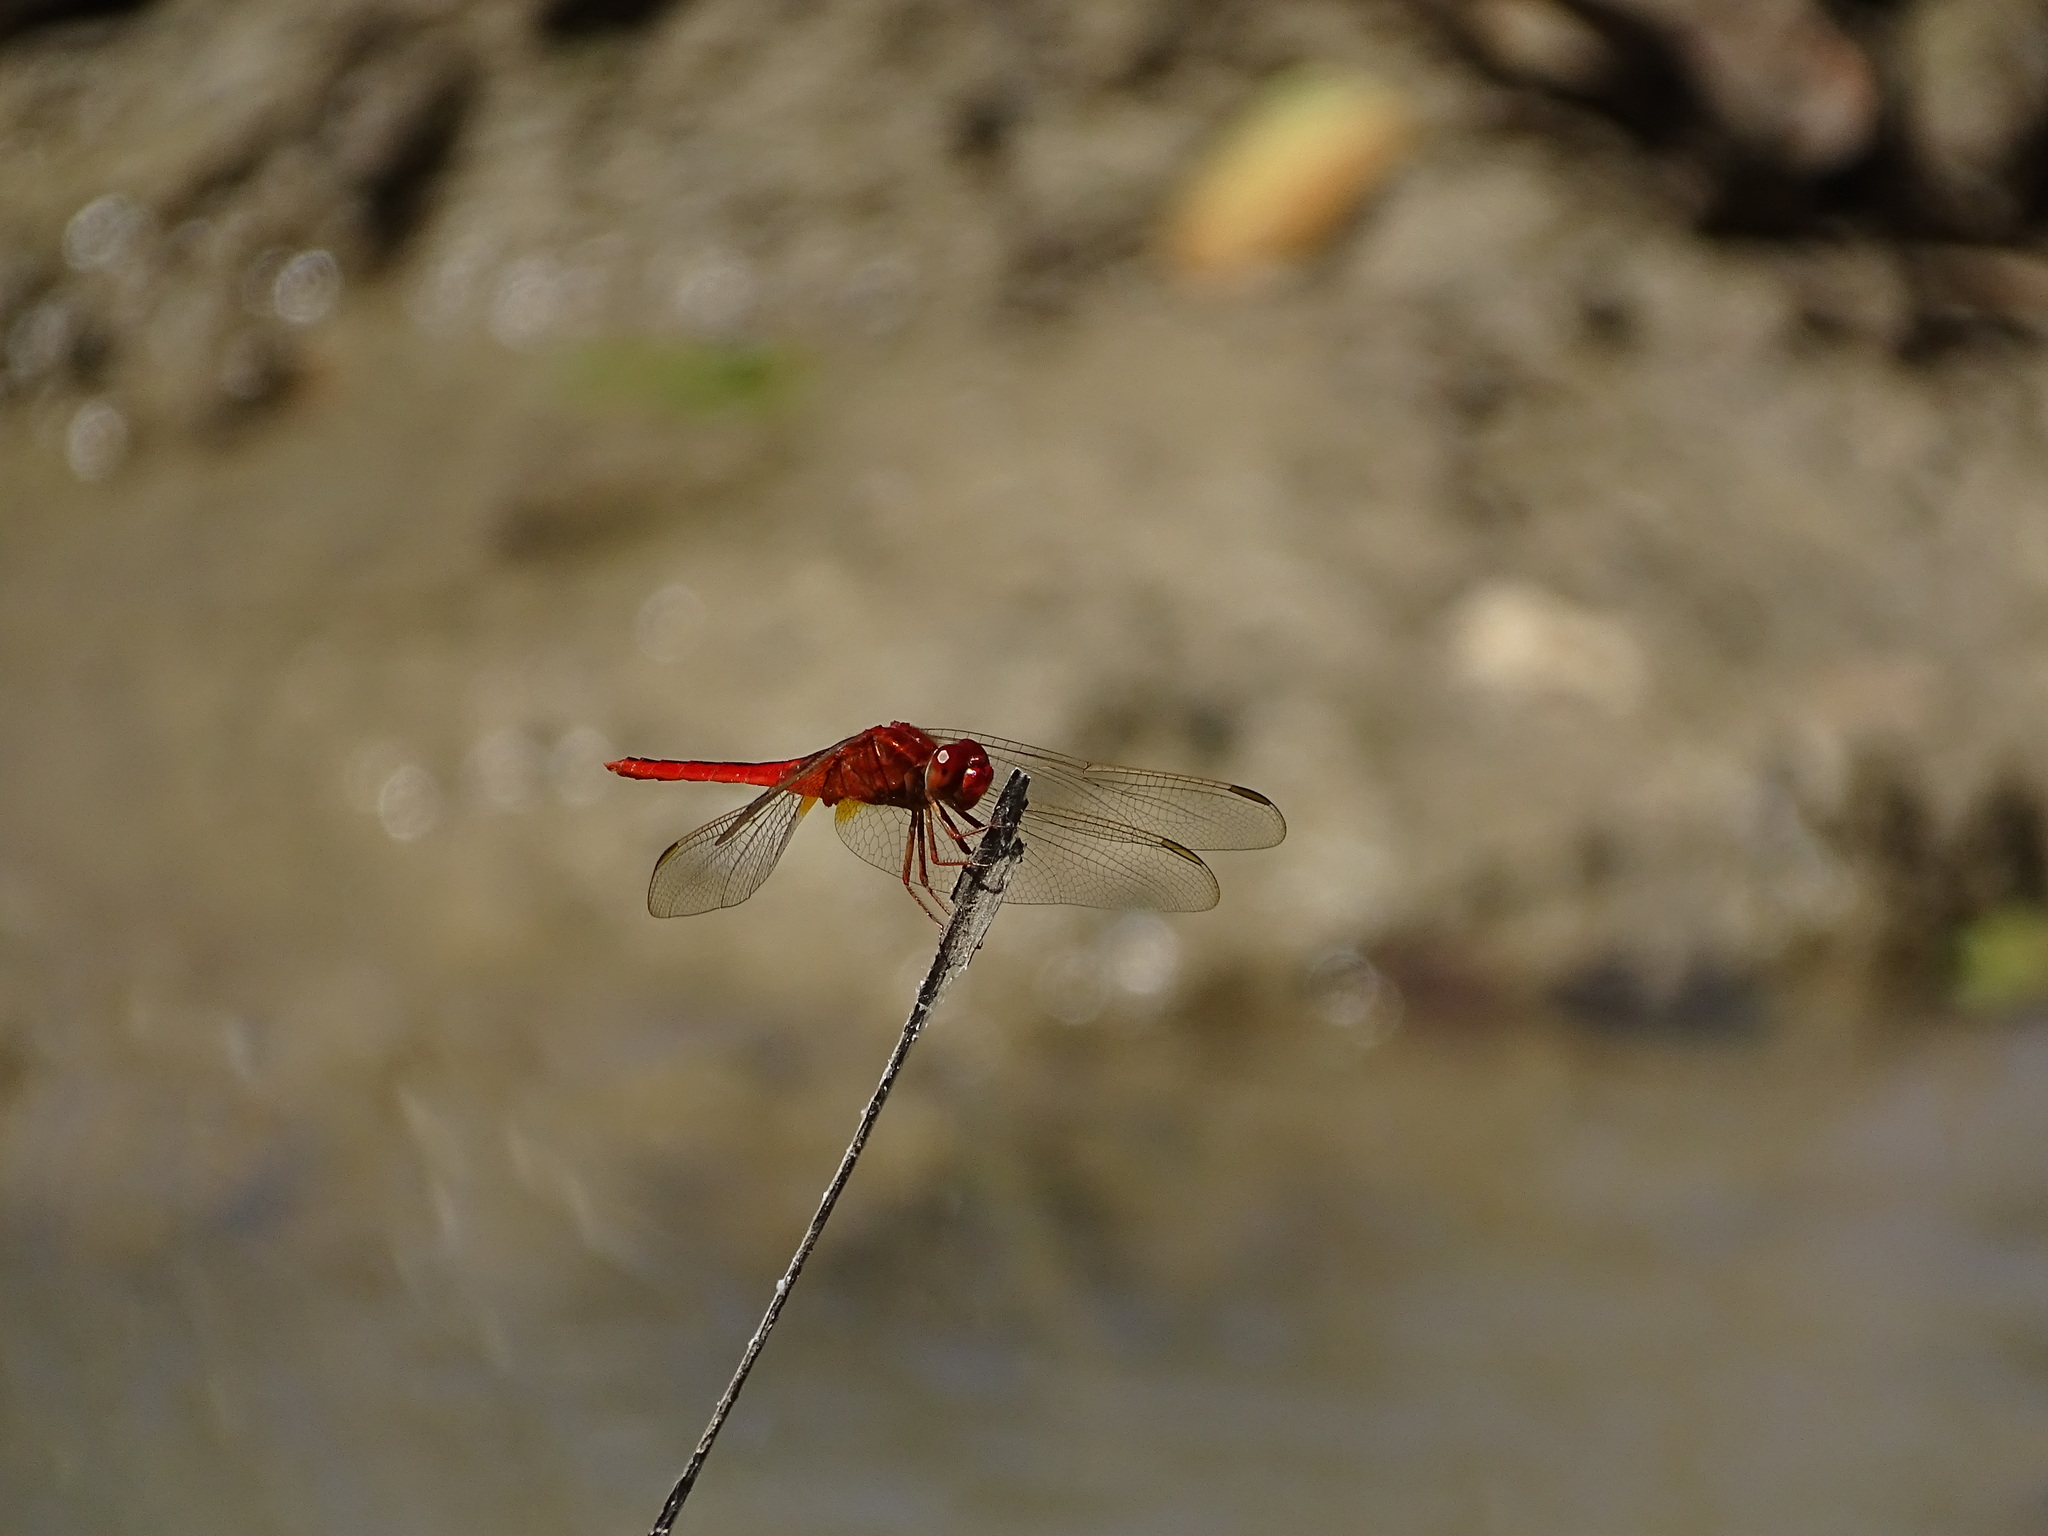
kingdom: Animalia
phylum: Arthropoda
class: Insecta
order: Odonata
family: Libellulidae
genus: Crocothemis
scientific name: Crocothemis servilia
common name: Scarlet skimmer
